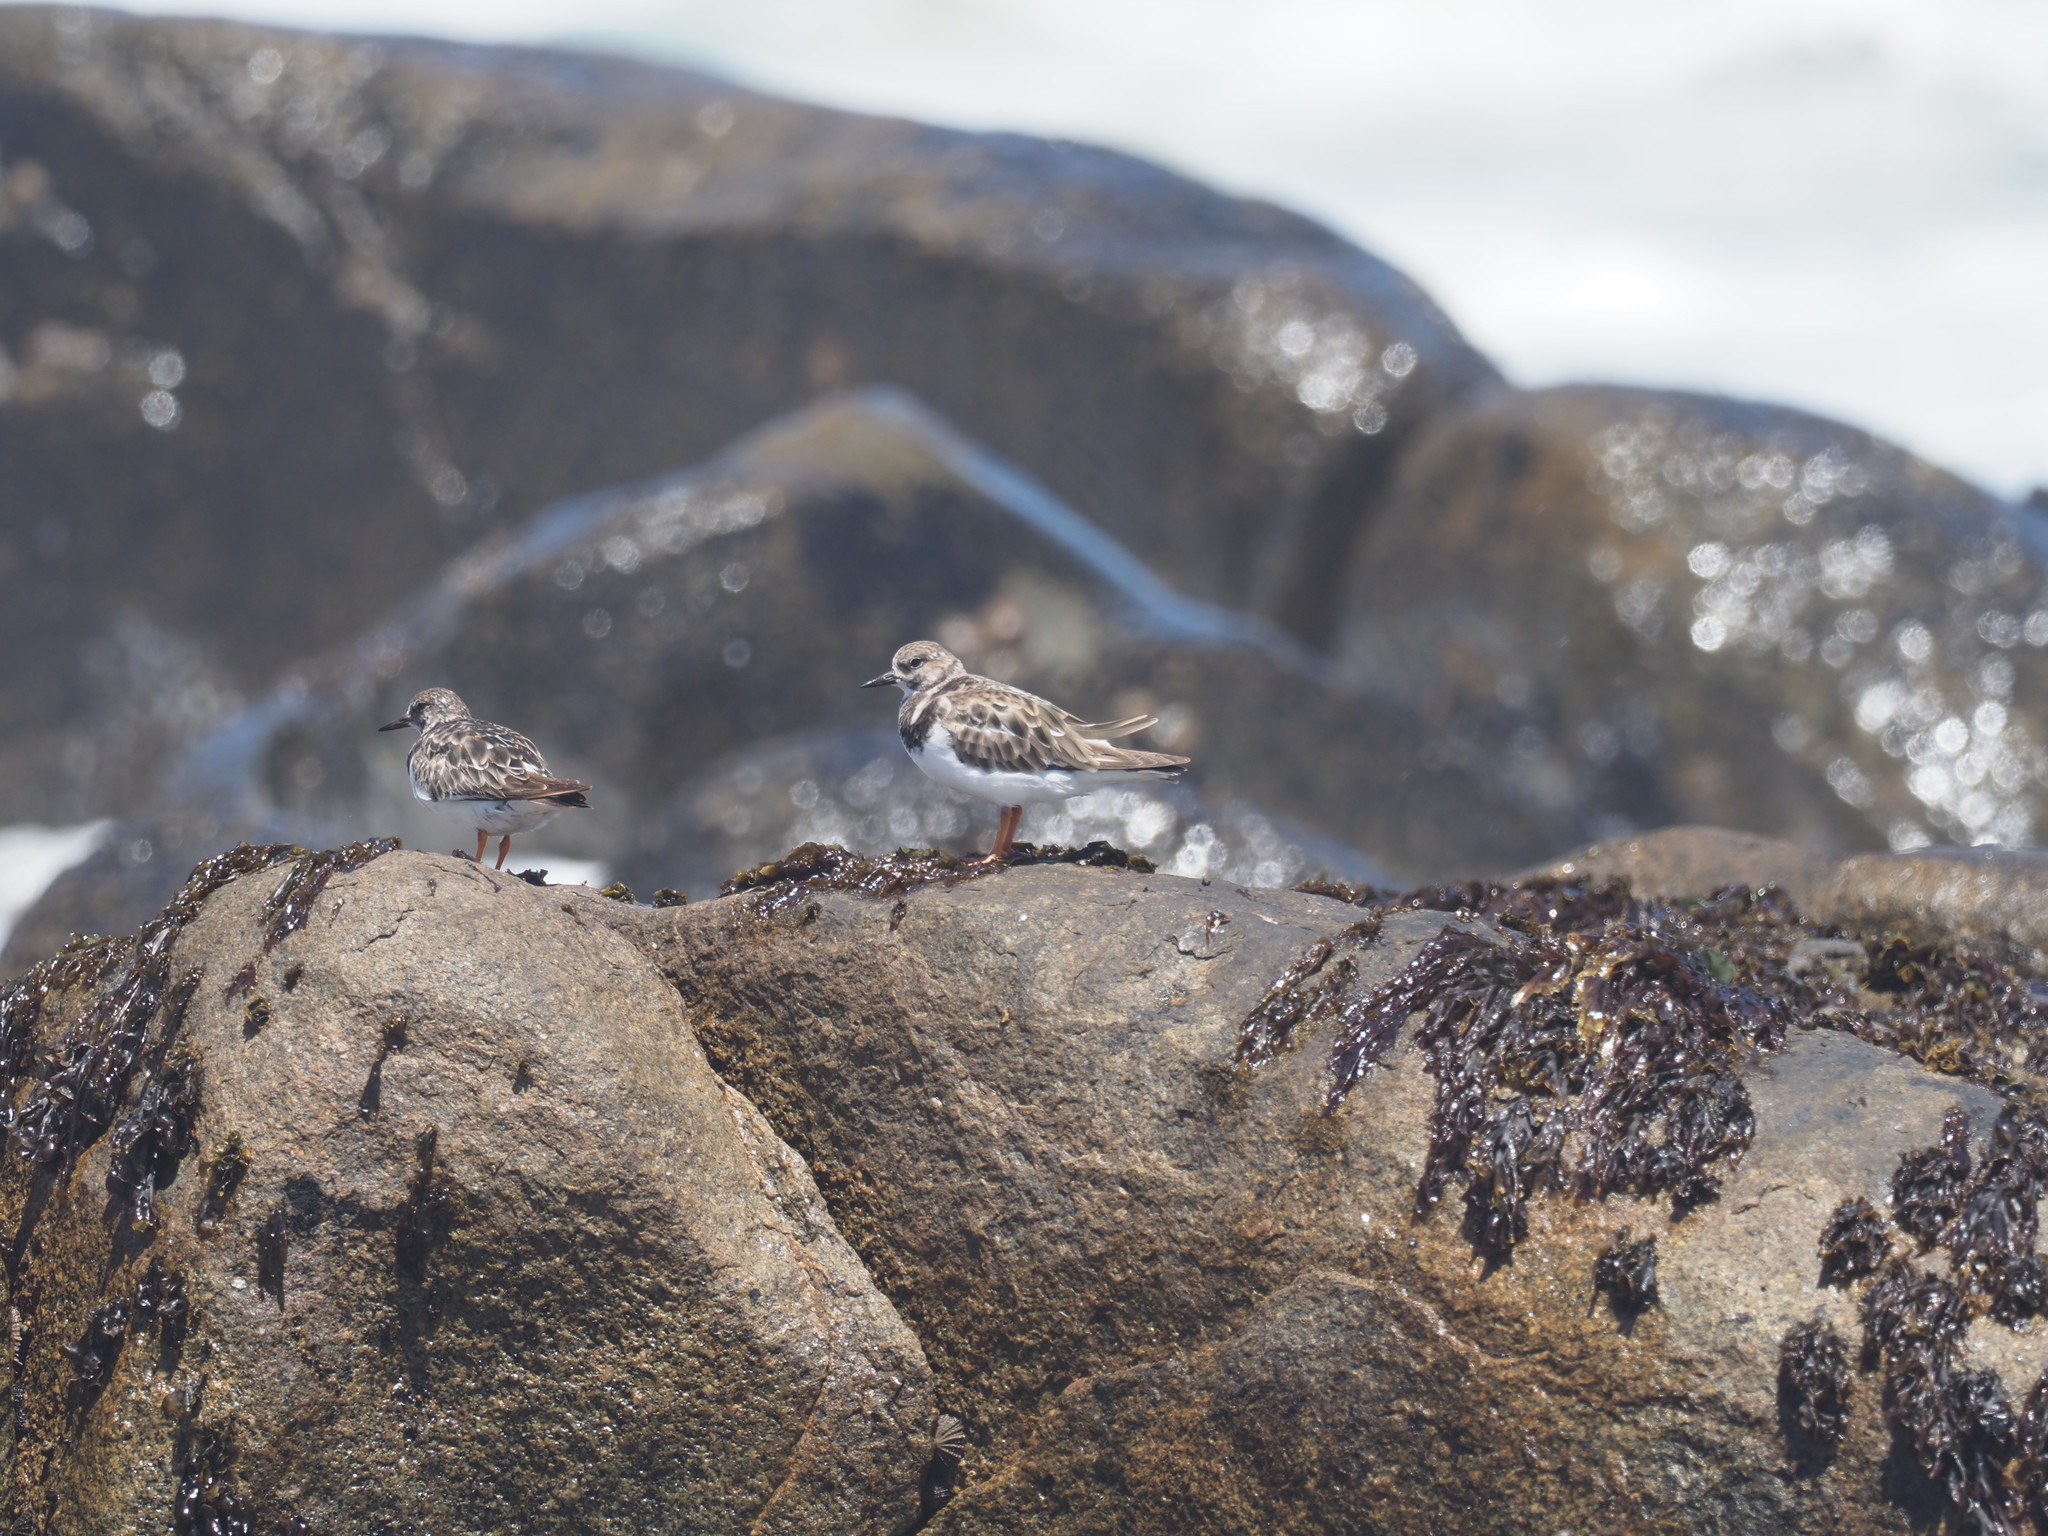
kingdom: Animalia
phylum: Chordata
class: Aves
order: Charadriiformes
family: Scolopacidae
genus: Arenaria
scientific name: Arenaria interpres
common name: Ruddy turnstone
